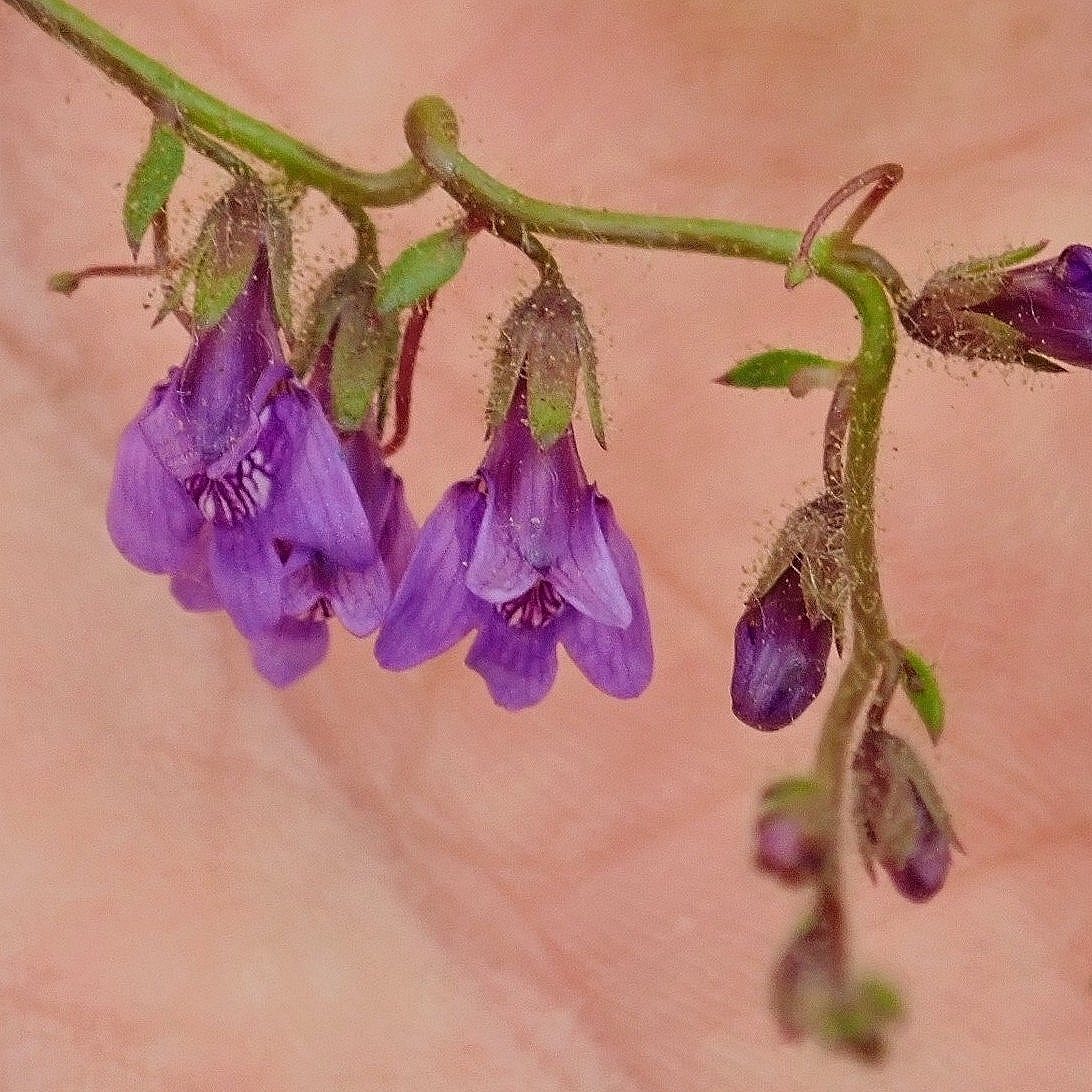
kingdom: Plantae
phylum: Tracheophyta
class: Magnoliopsida
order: Lamiales
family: Plantaginaceae
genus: Sairocarpus
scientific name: Sairocarpus nuttallianus
